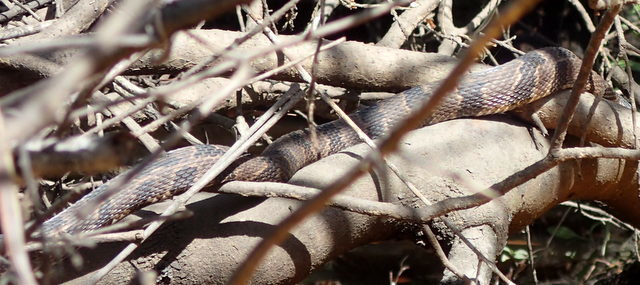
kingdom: Animalia
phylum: Chordata
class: Squamata
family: Colubridae
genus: Nerodia
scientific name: Nerodia taxispilota
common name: Brown water snake
